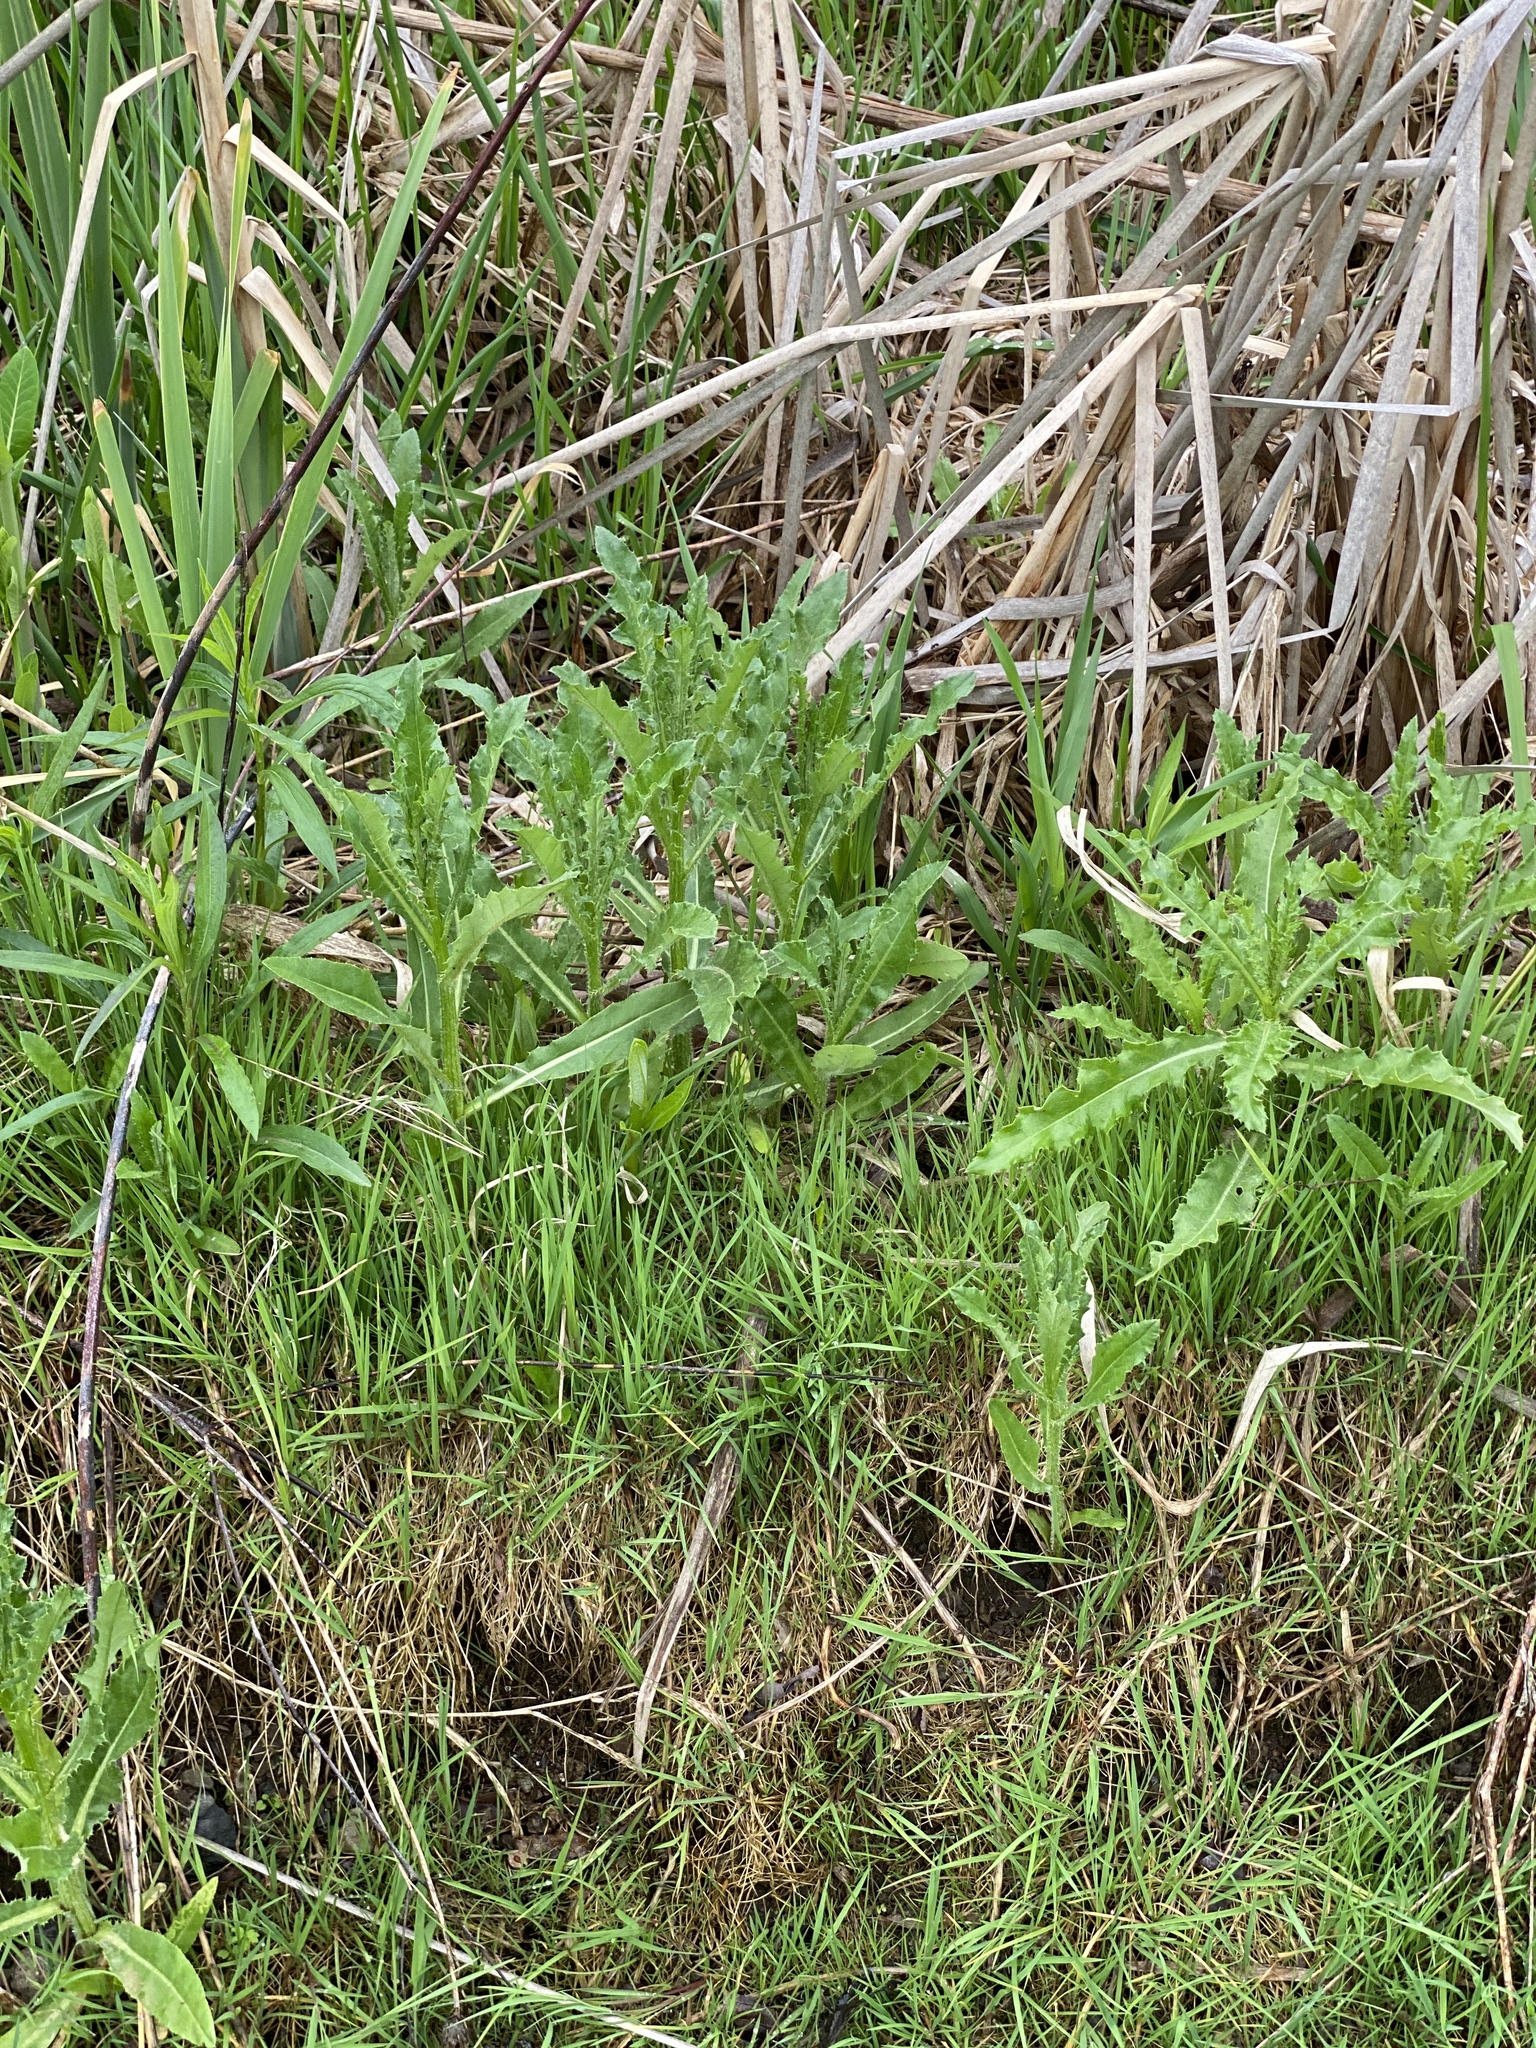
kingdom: Plantae
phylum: Tracheophyta
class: Magnoliopsida
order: Asterales
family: Asteraceae
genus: Cirsium
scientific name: Cirsium arvense
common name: Creeping thistle
